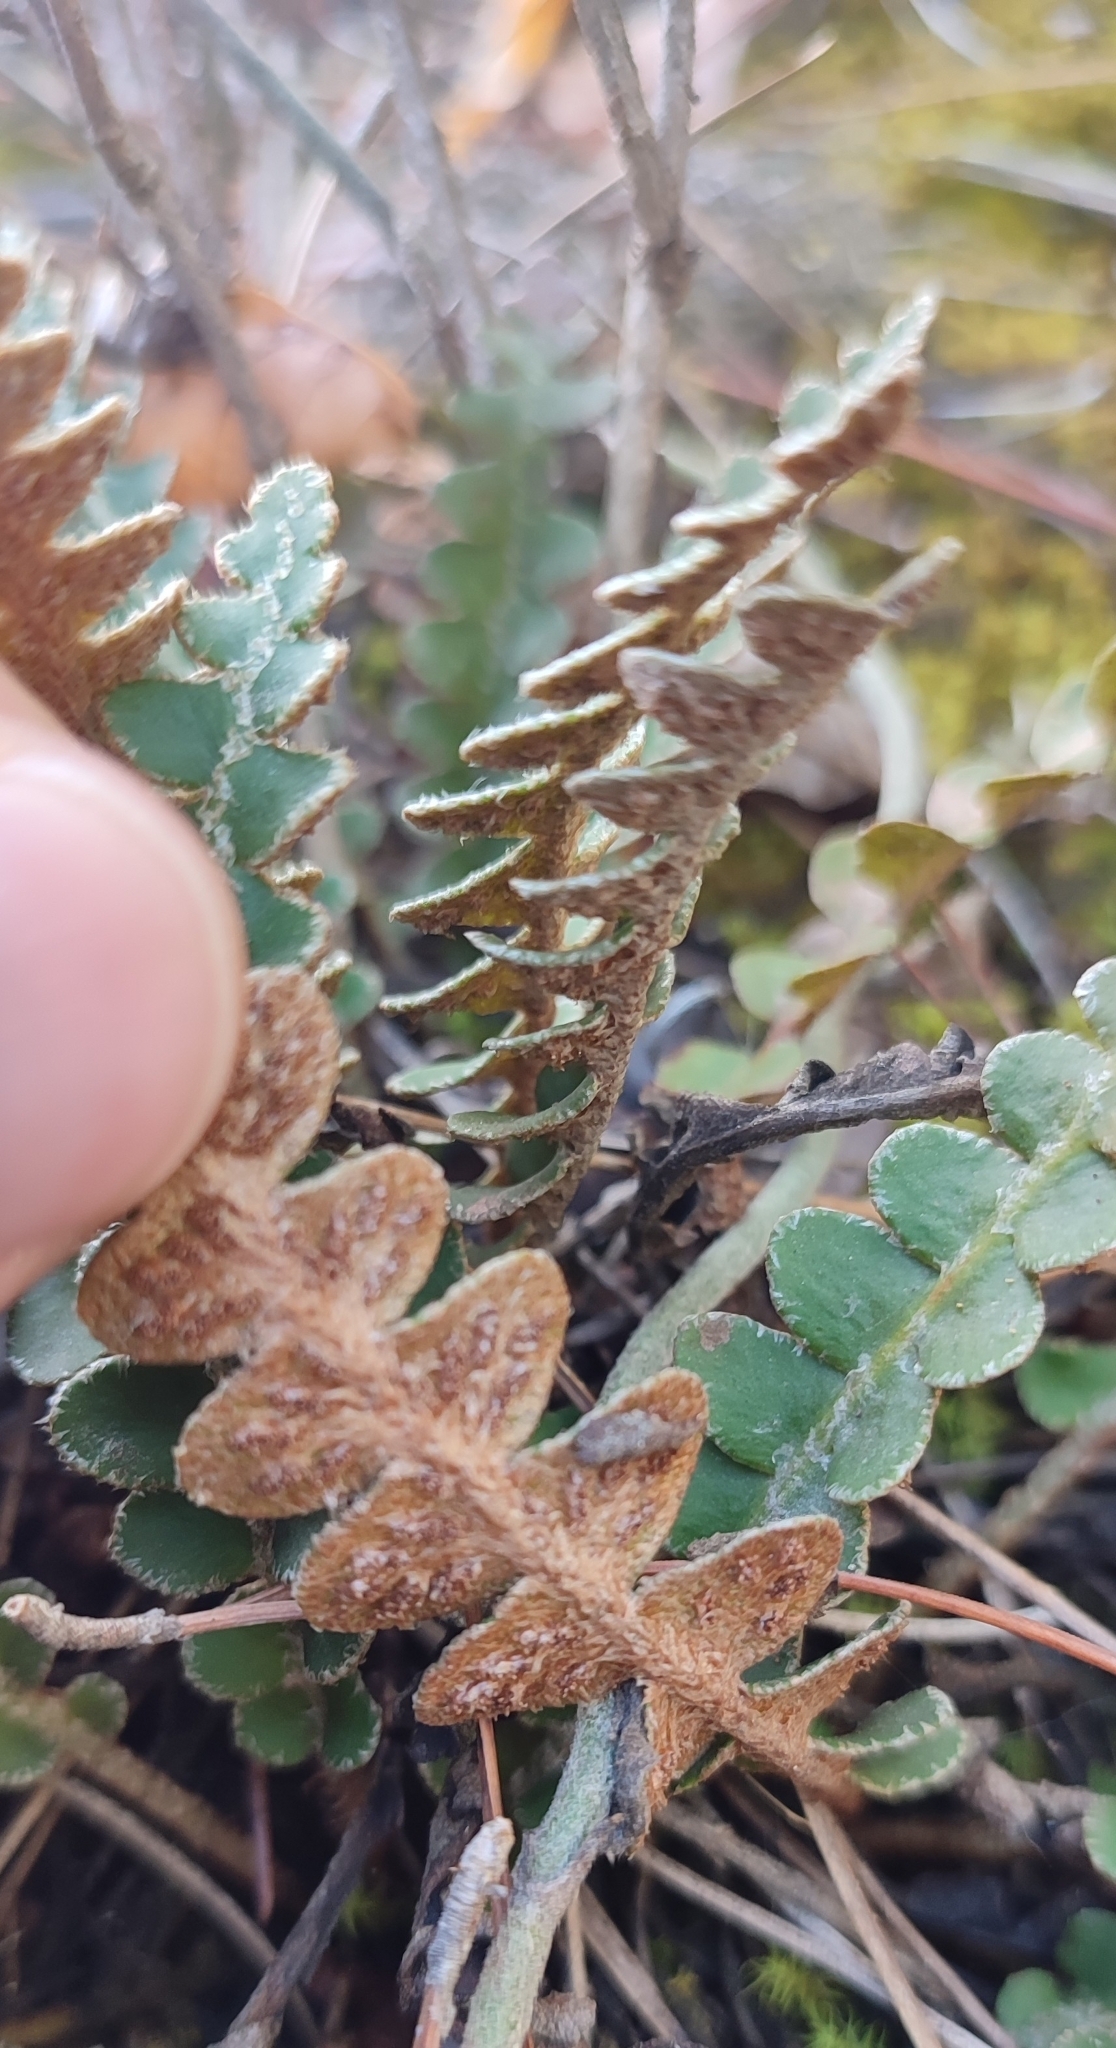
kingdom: Plantae
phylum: Tracheophyta
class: Polypodiopsida
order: Polypodiales
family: Aspleniaceae
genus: Asplenium
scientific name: Asplenium ceterach
